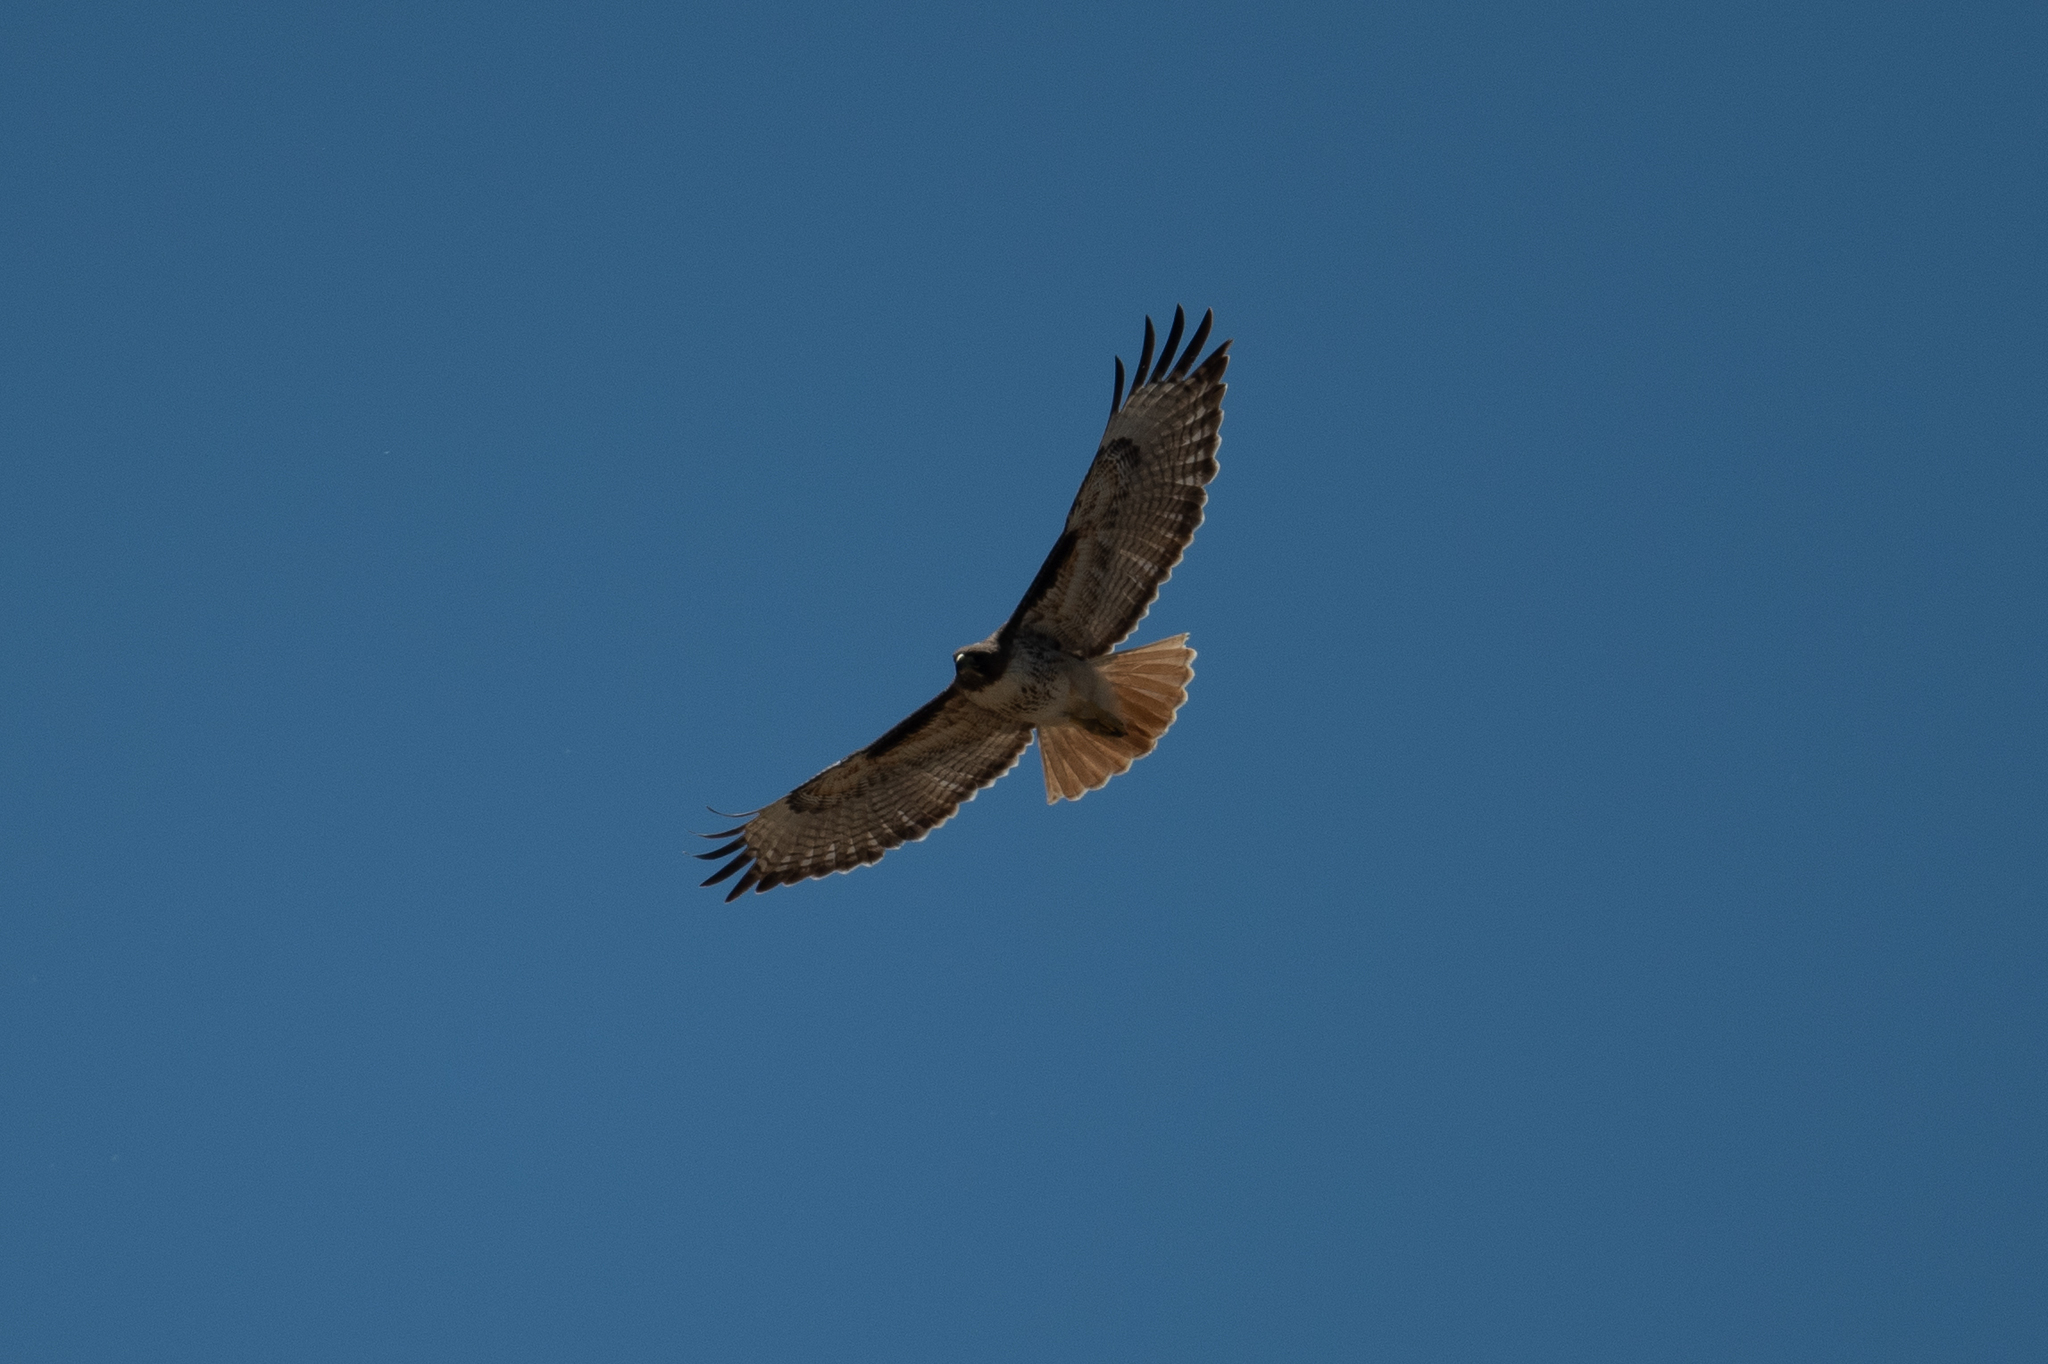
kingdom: Animalia
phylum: Chordata
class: Aves
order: Accipitriformes
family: Accipitridae
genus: Buteo
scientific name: Buteo jamaicensis
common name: Red-tailed hawk
